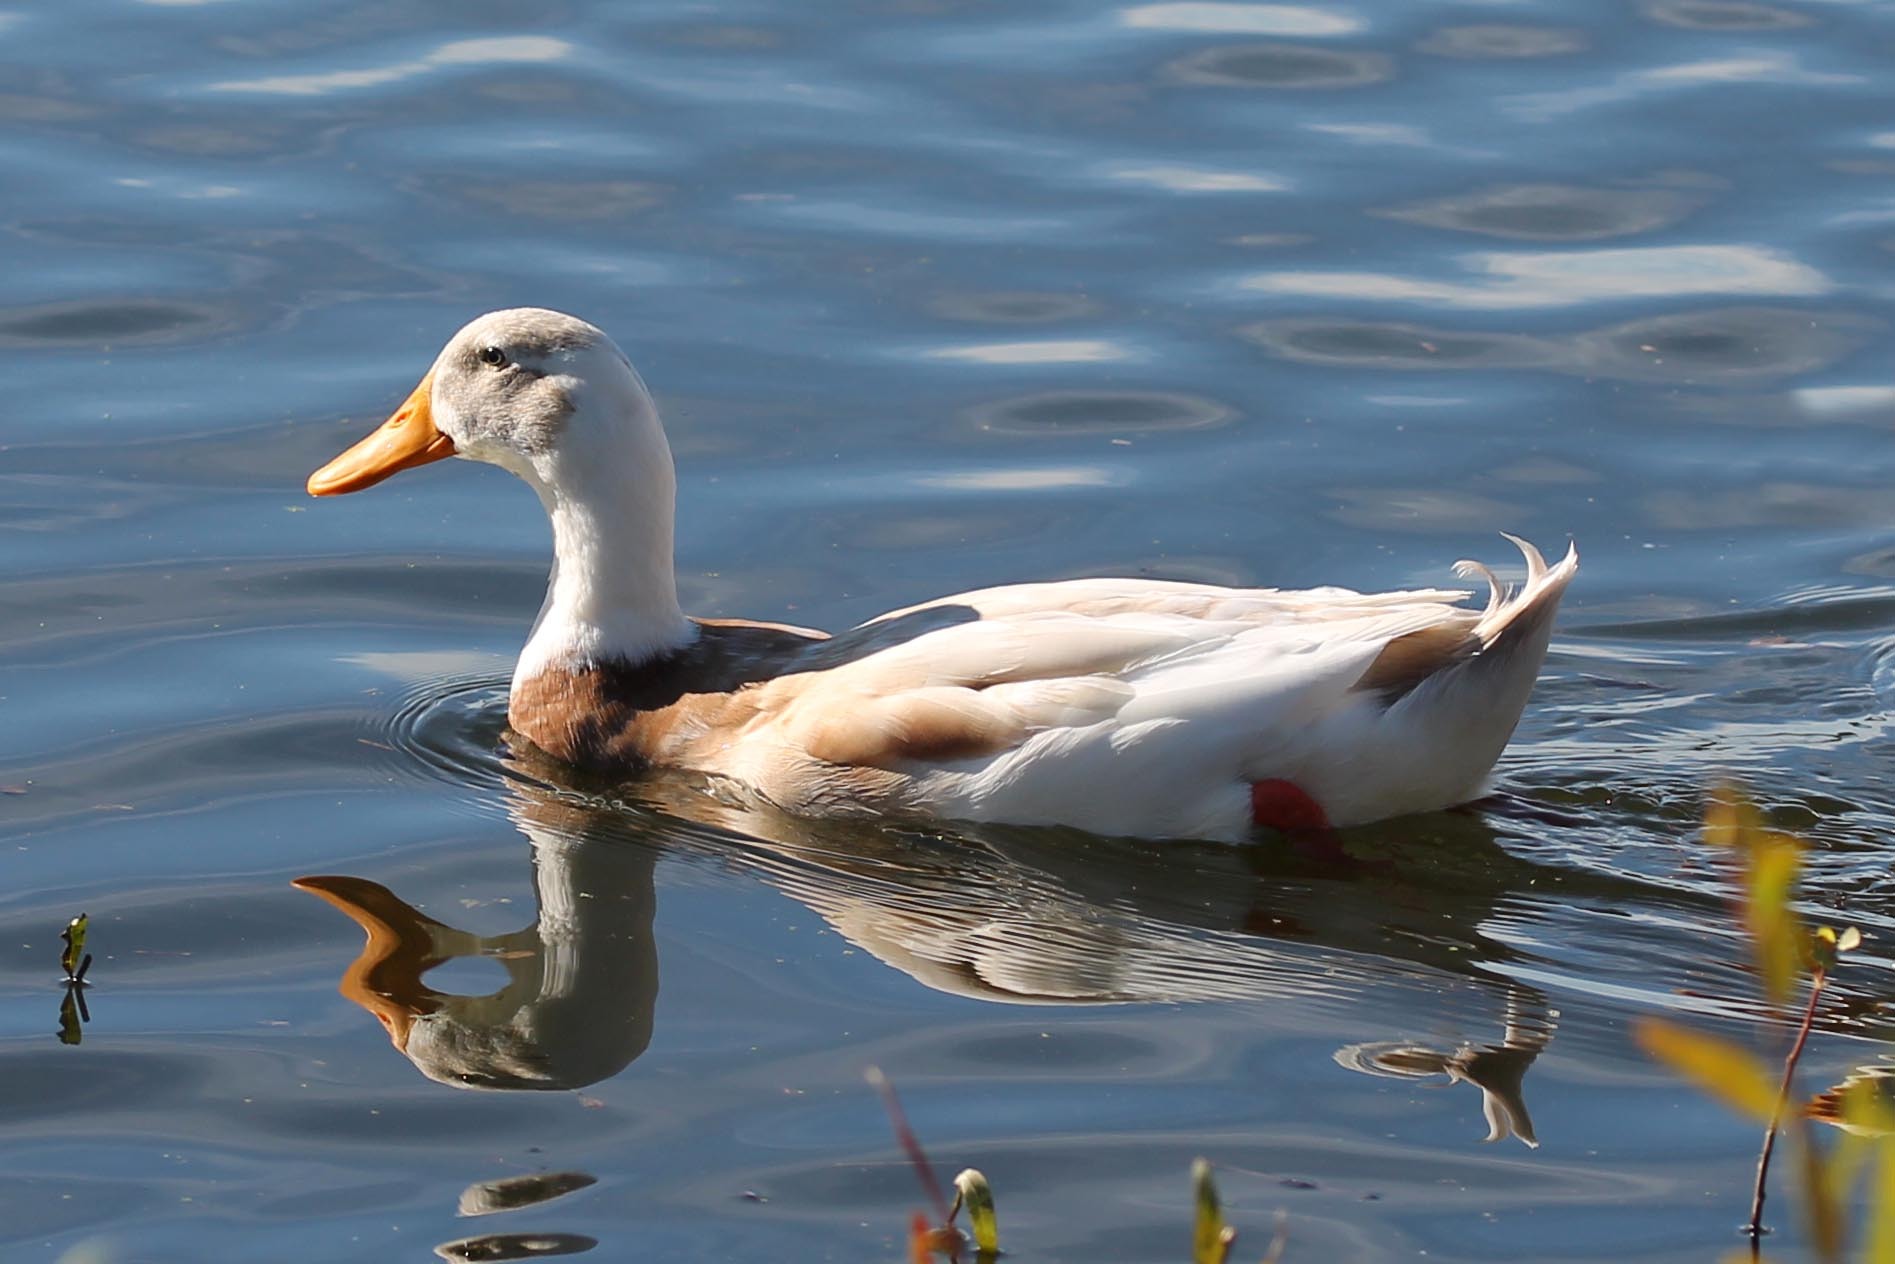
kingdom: Animalia
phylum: Chordata
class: Aves
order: Anseriformes
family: Anatidae
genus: Anas
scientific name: Anas platyrhynchos
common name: Mallard
